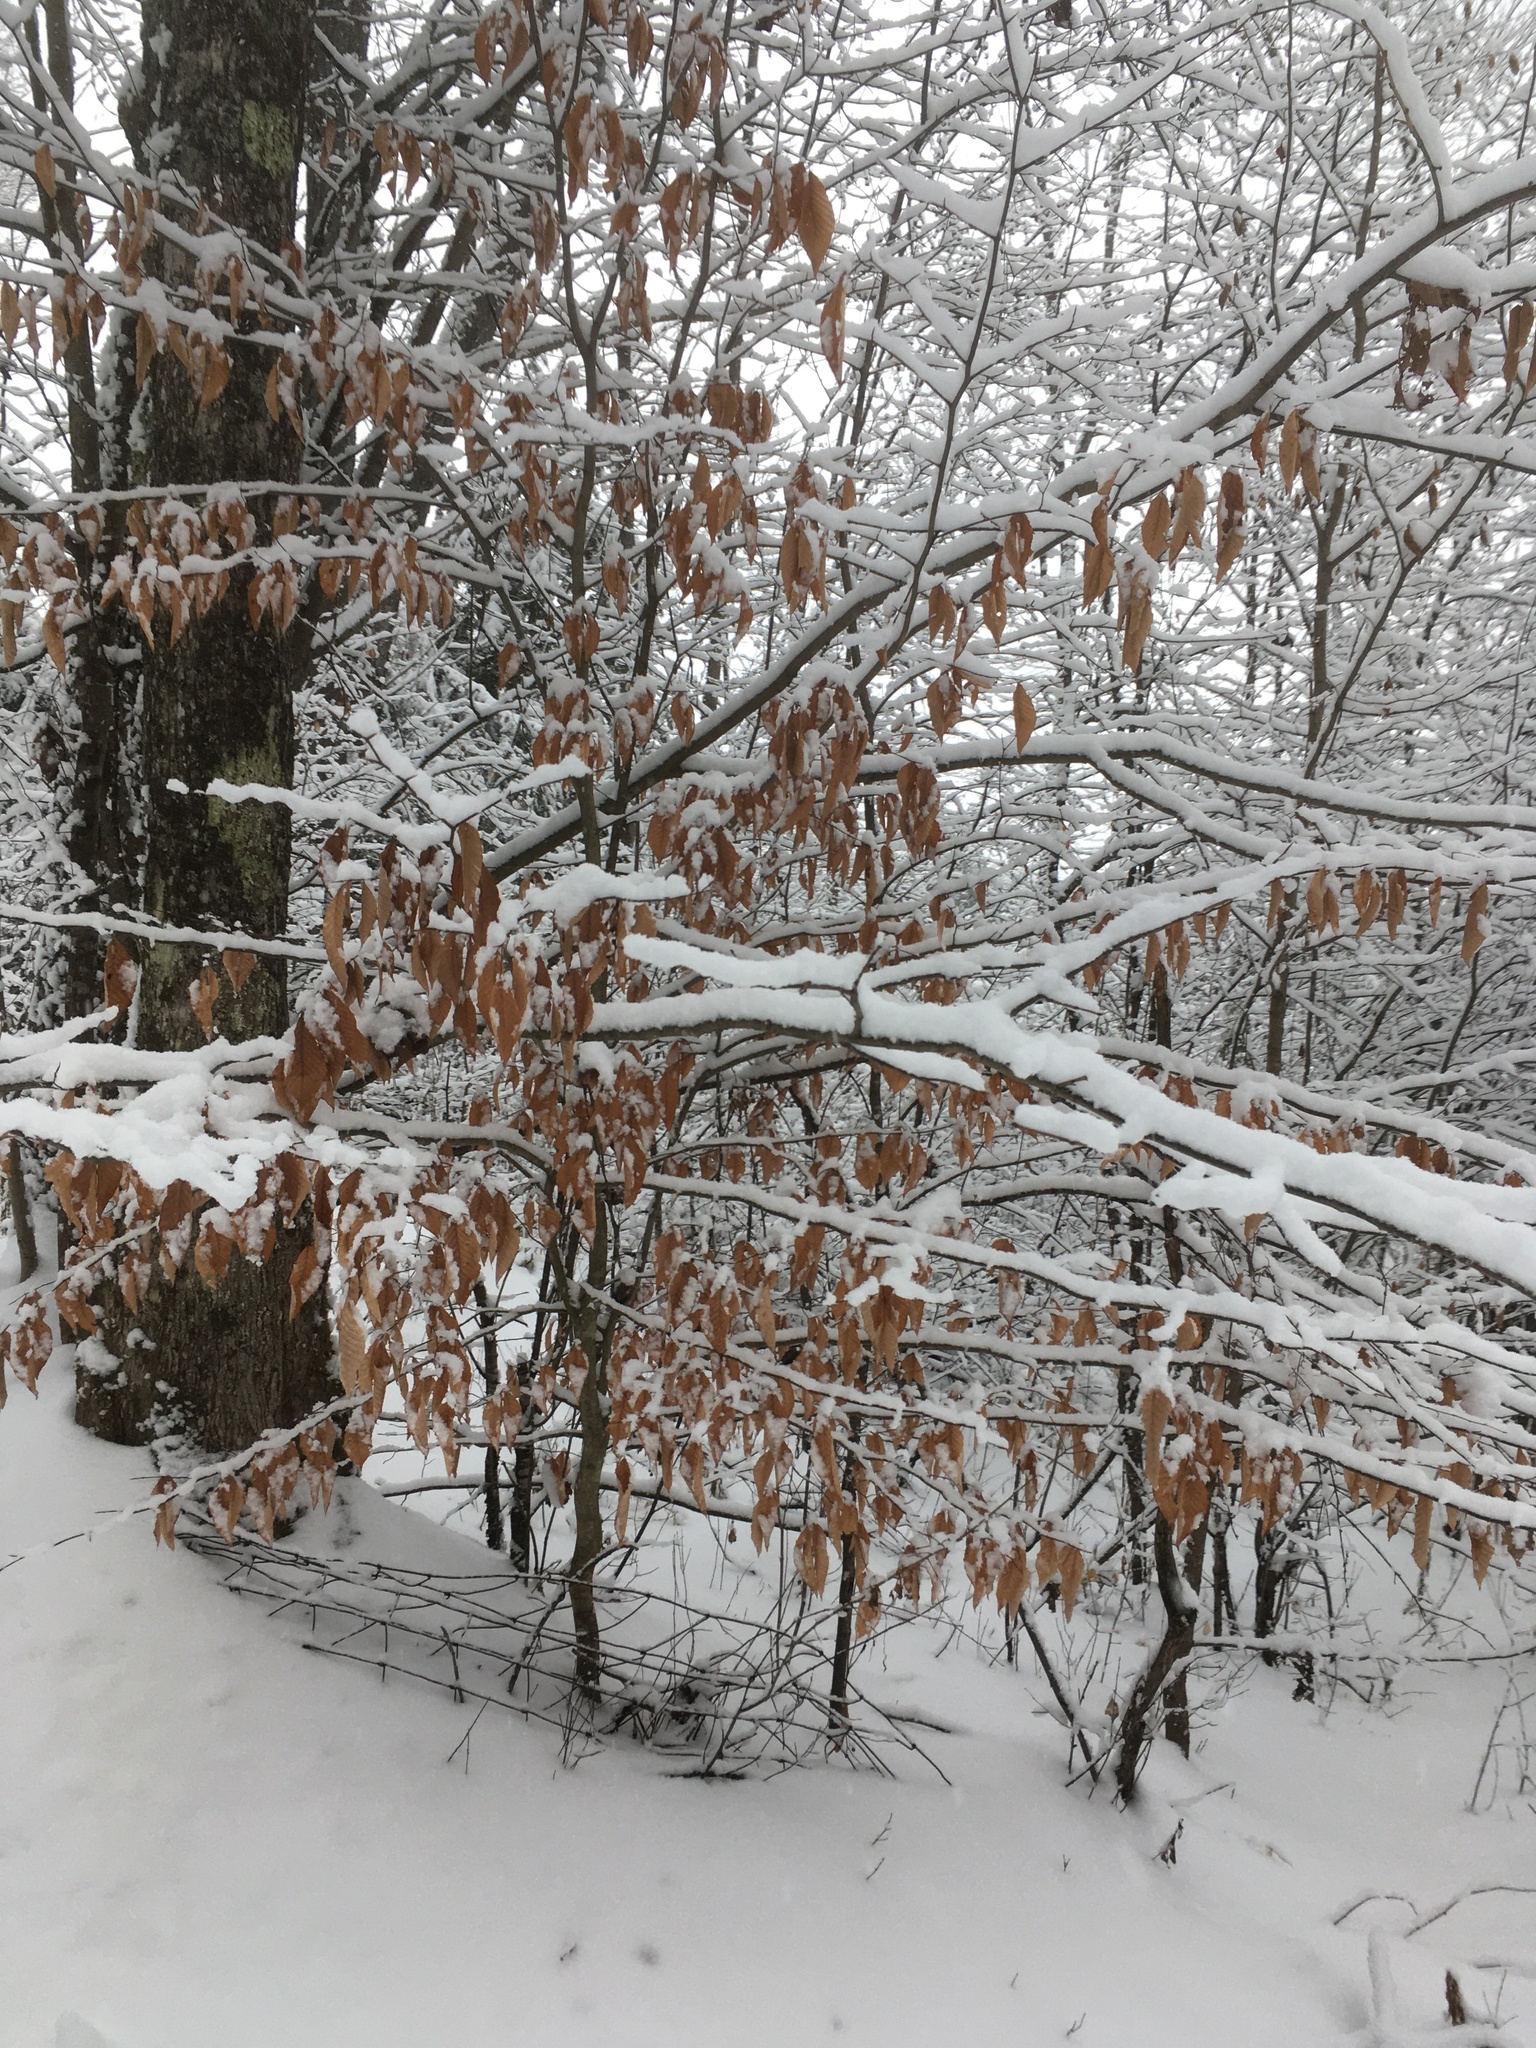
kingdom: Plantae
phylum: Tracheophyta
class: Magnoliopsida
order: Fagales
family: Fagaceae
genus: Fagus
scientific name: Fagus grandifolia
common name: American beech
